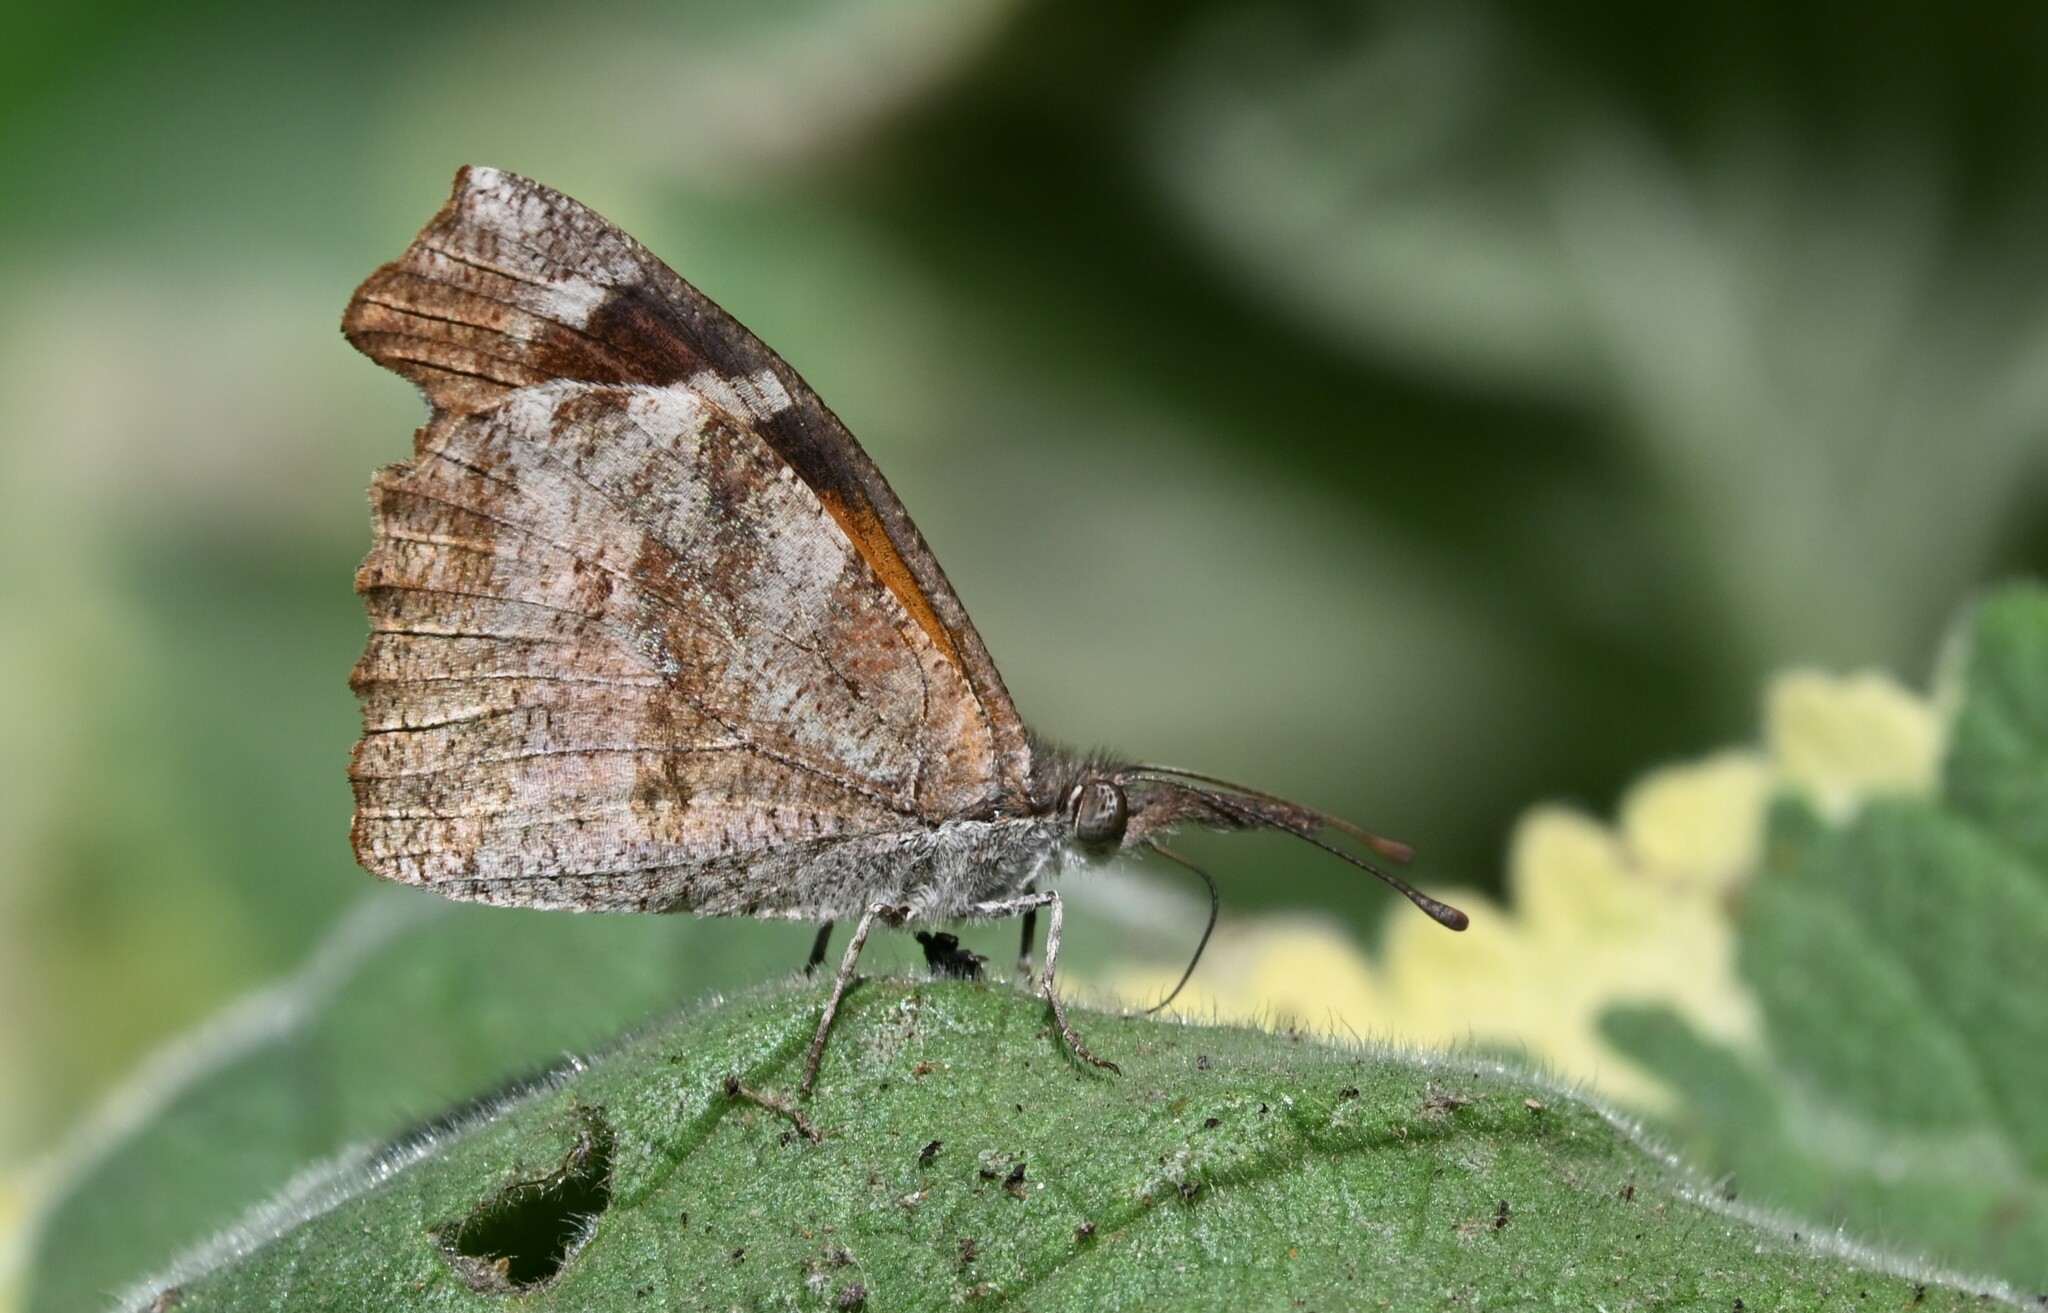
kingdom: Animalia
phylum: Arthropoda
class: Insecta
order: Lepidoptera
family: Nymphalidae
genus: Libytheana
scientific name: Libytheana carinenta
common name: American snout
